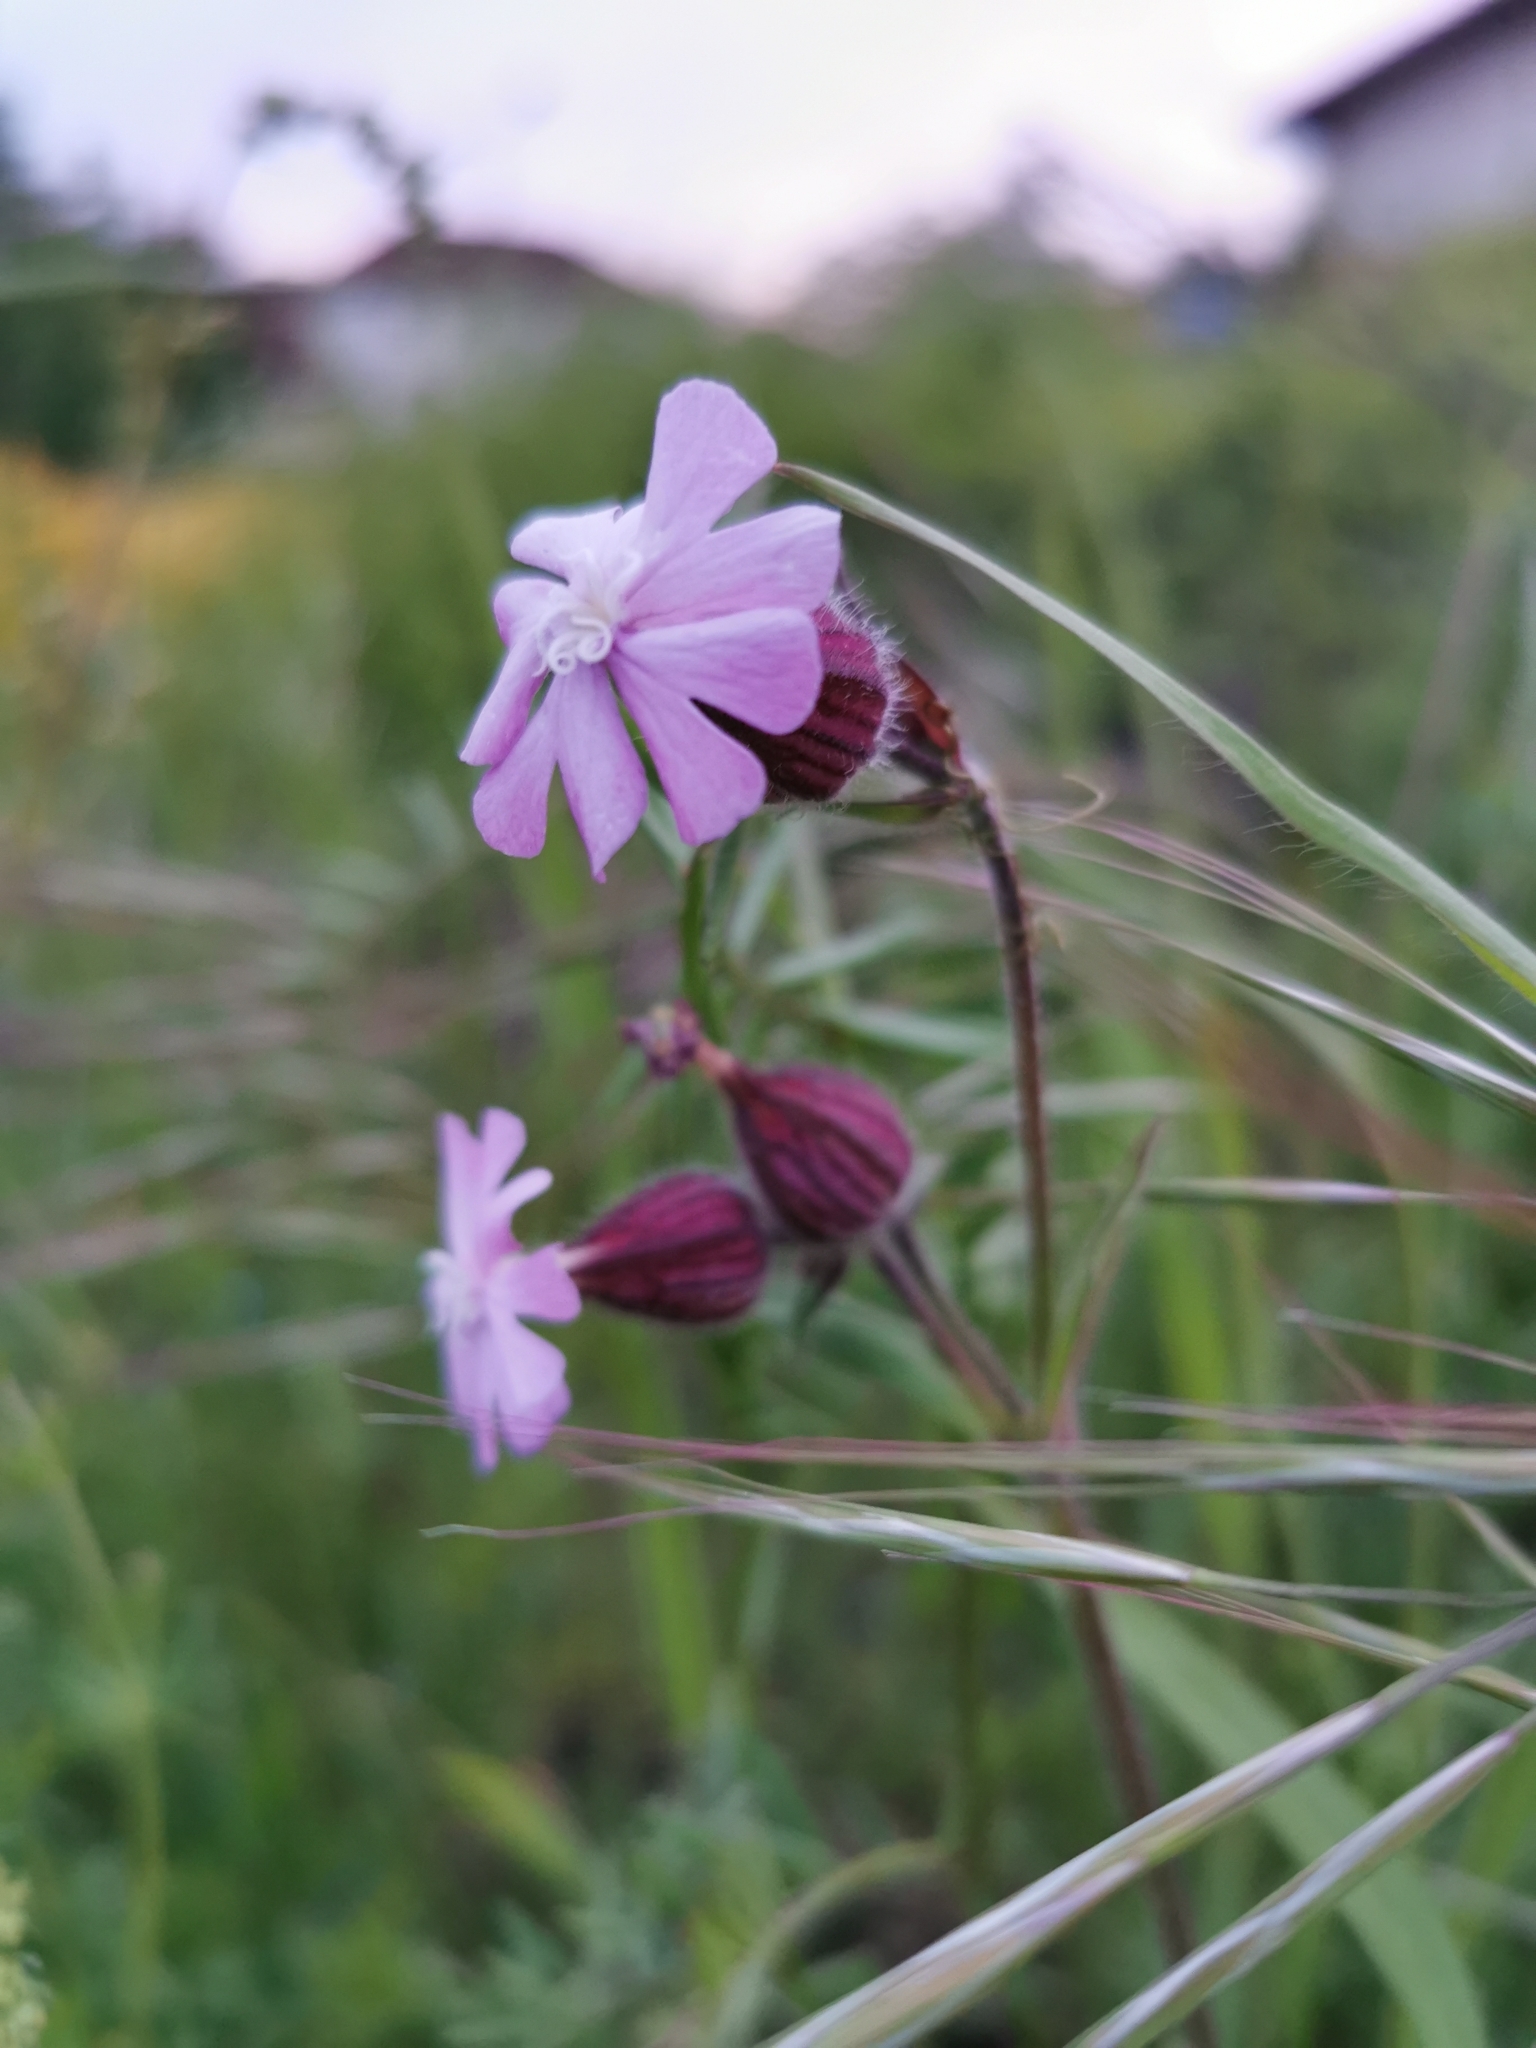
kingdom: Plantae
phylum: Tracheophyta
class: Magnoliopsida
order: Caryophyllales
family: Caryophyllaceae
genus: Silene
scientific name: Silene dioica
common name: Red campion
